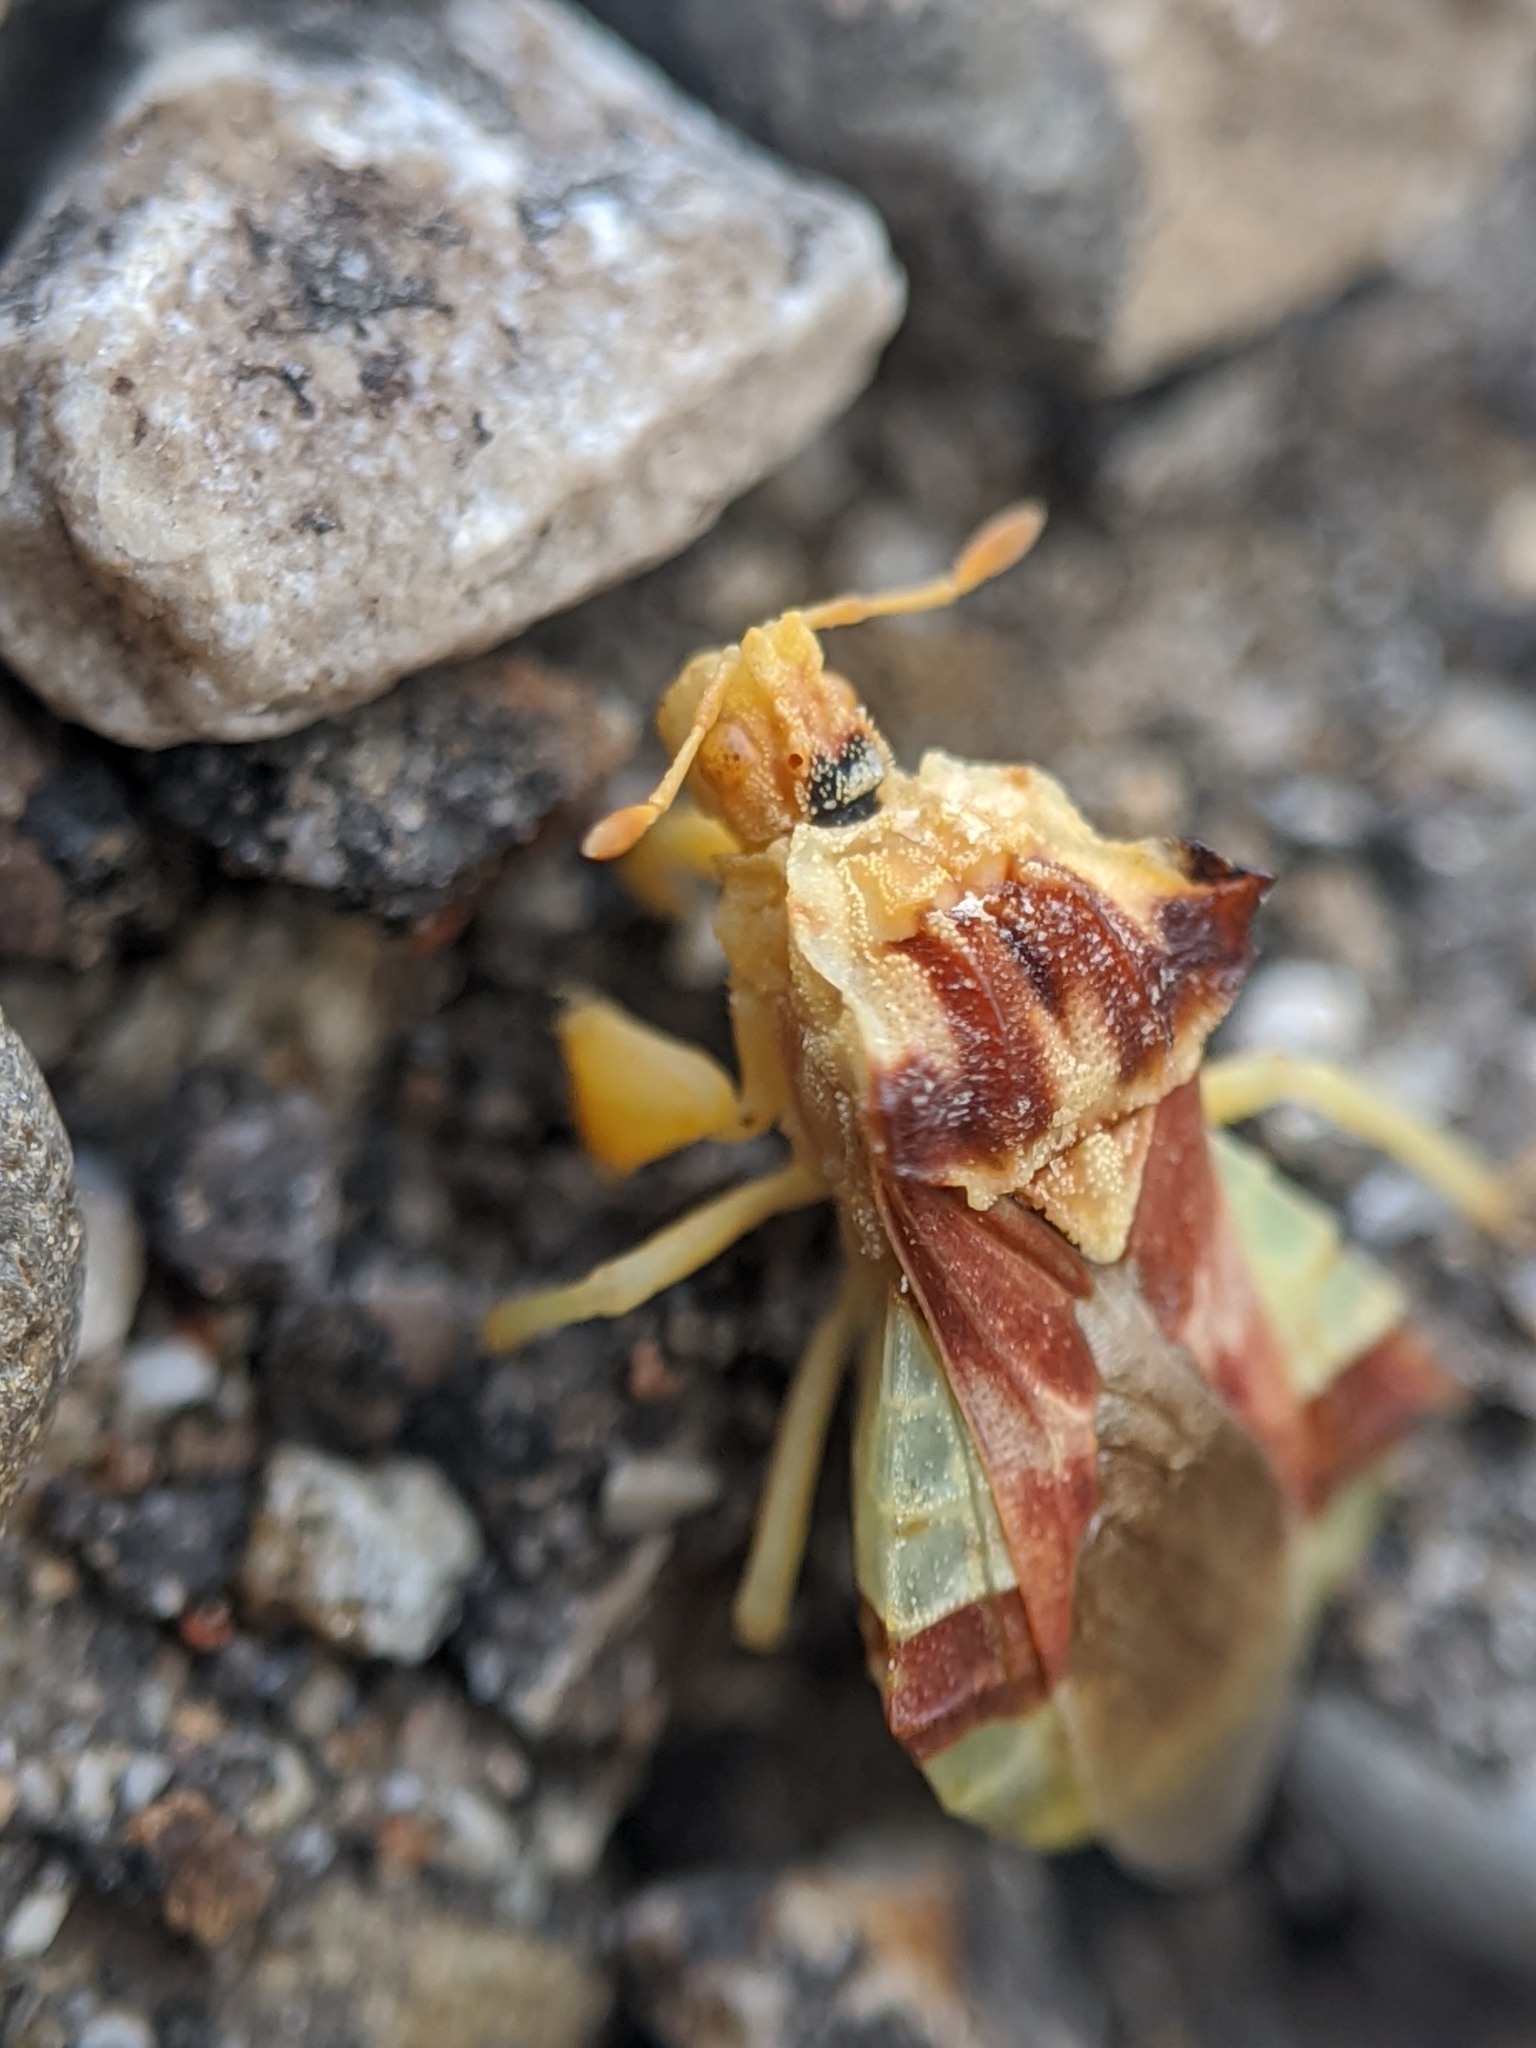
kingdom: Animalia
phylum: Arthropoda
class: Insecta
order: Hemiptera
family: Reduviidae
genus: Phymata
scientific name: Phymata pacifica
